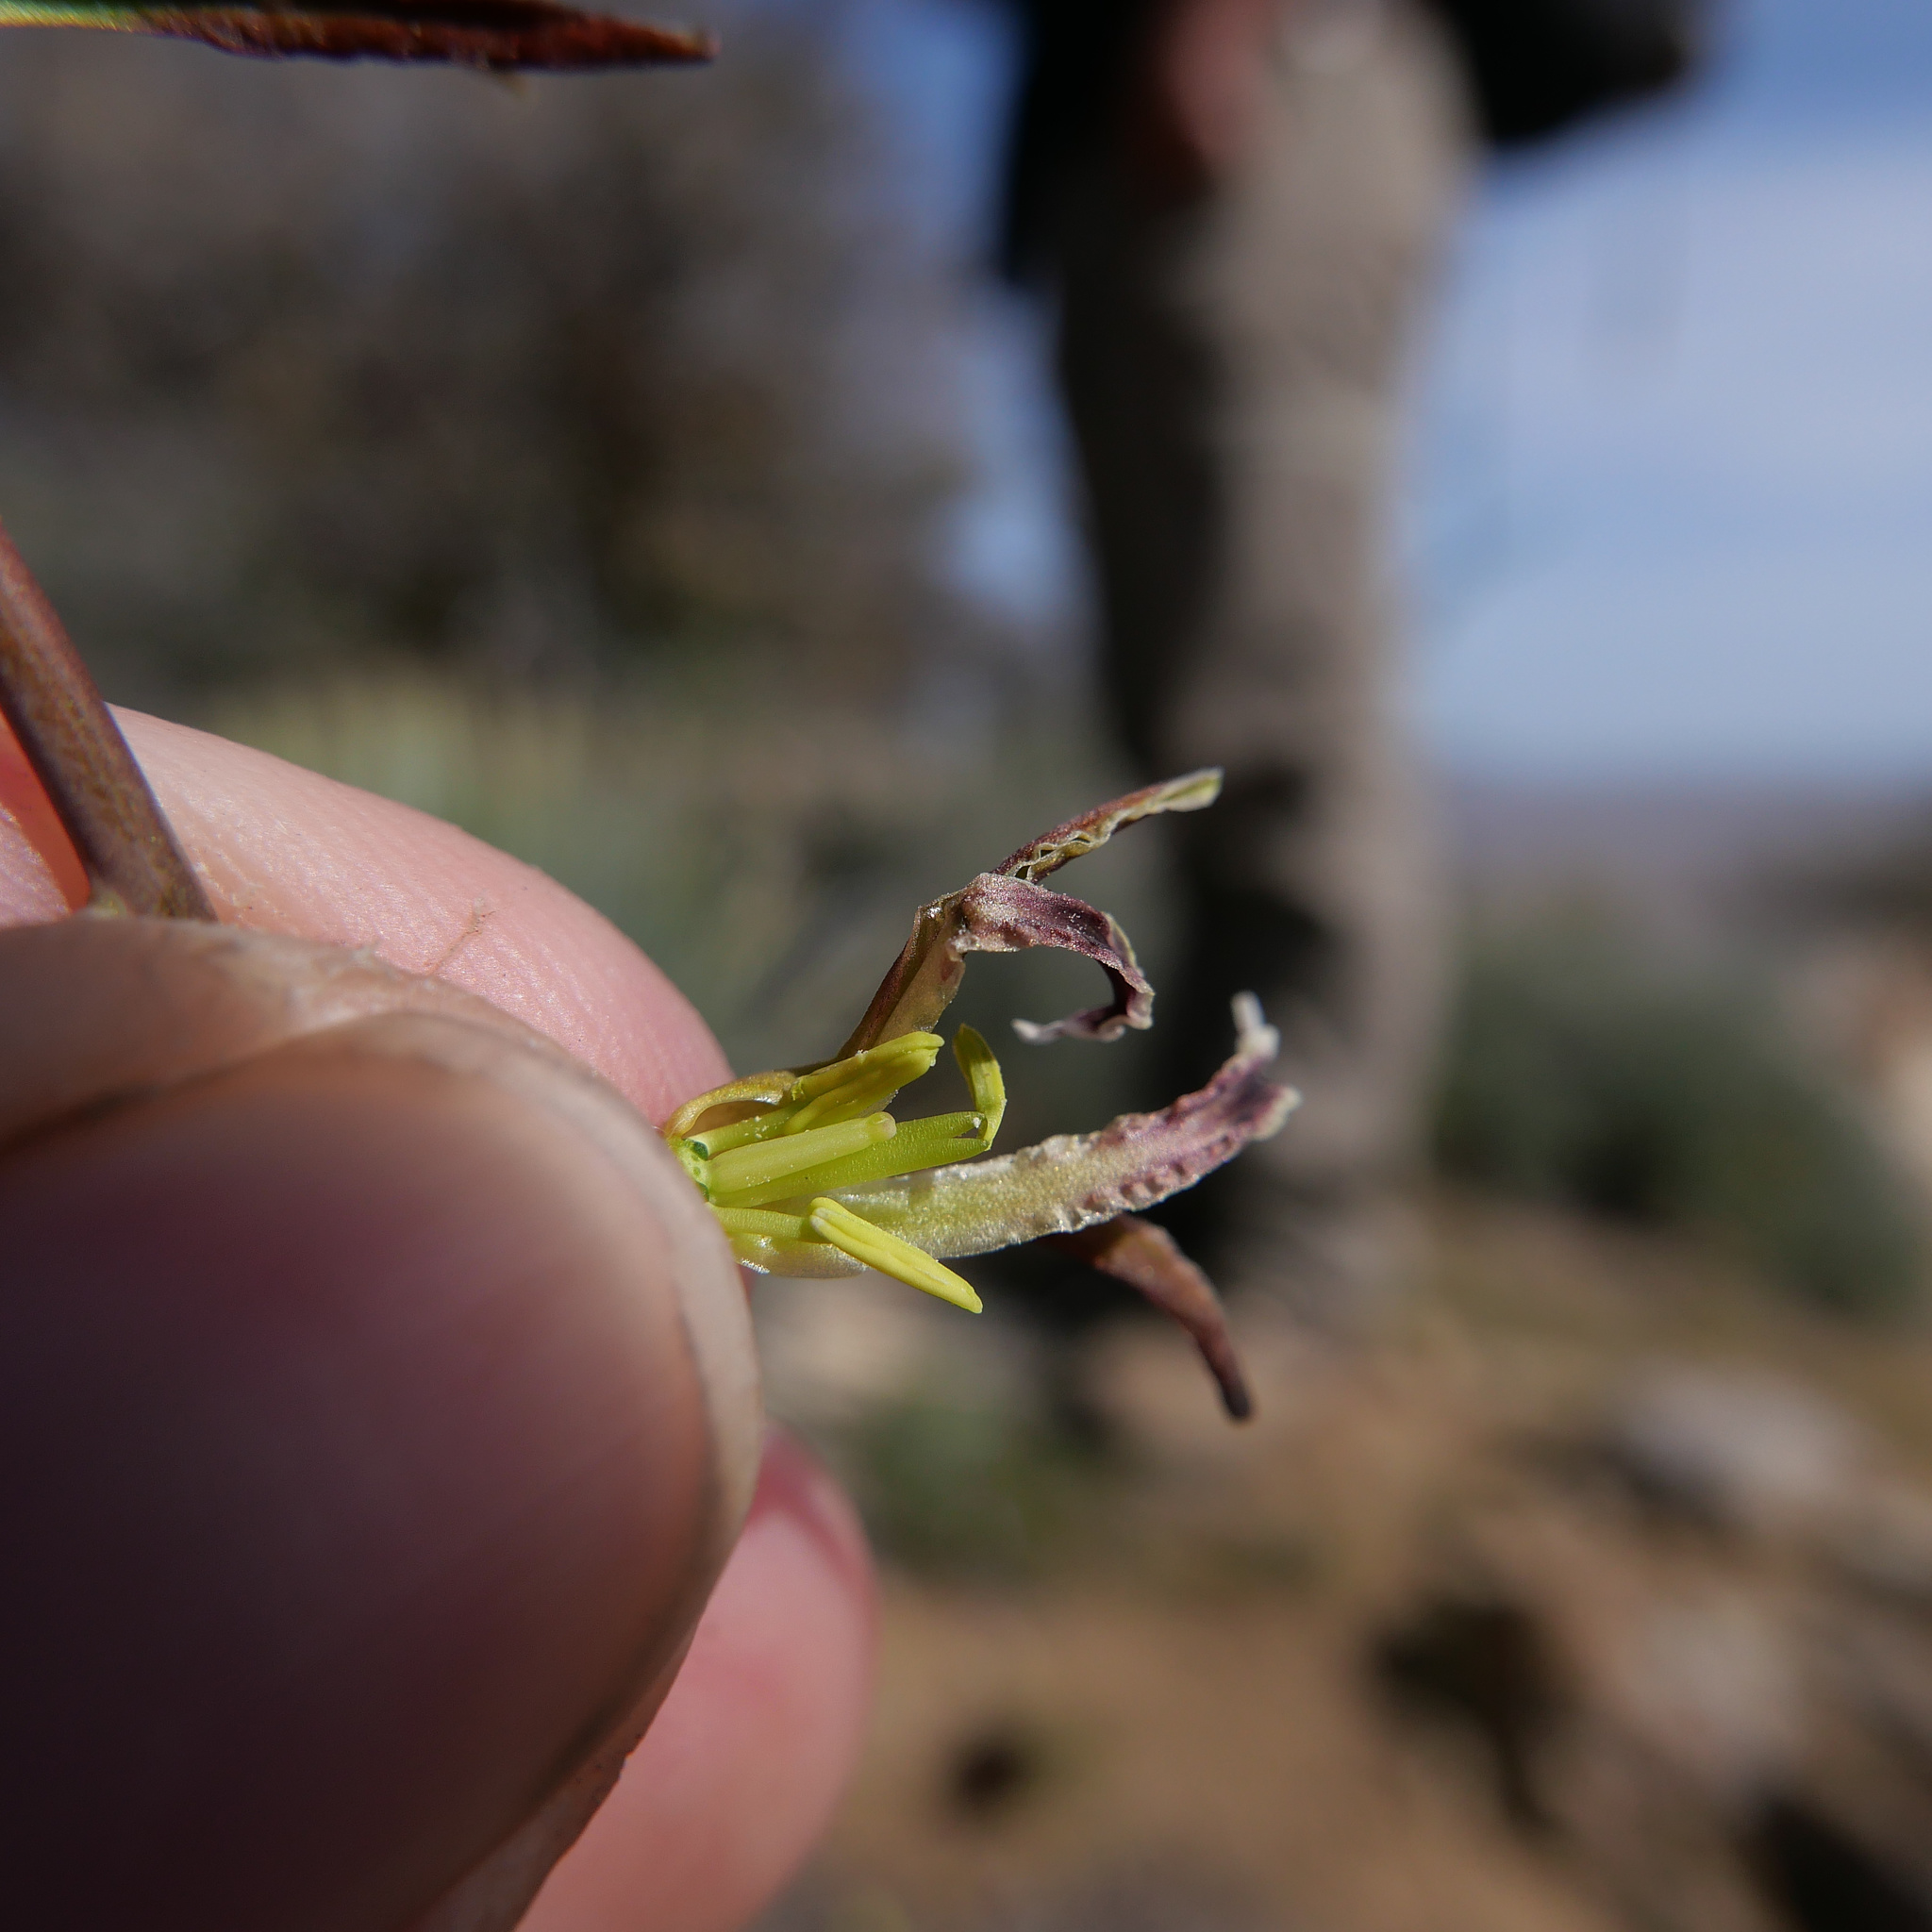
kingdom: Plantae
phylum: Tracheophyta
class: Magnoliopsida
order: Brassicales
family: Brassicaceae
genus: Streptanthus
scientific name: Streptanthus coulteri
